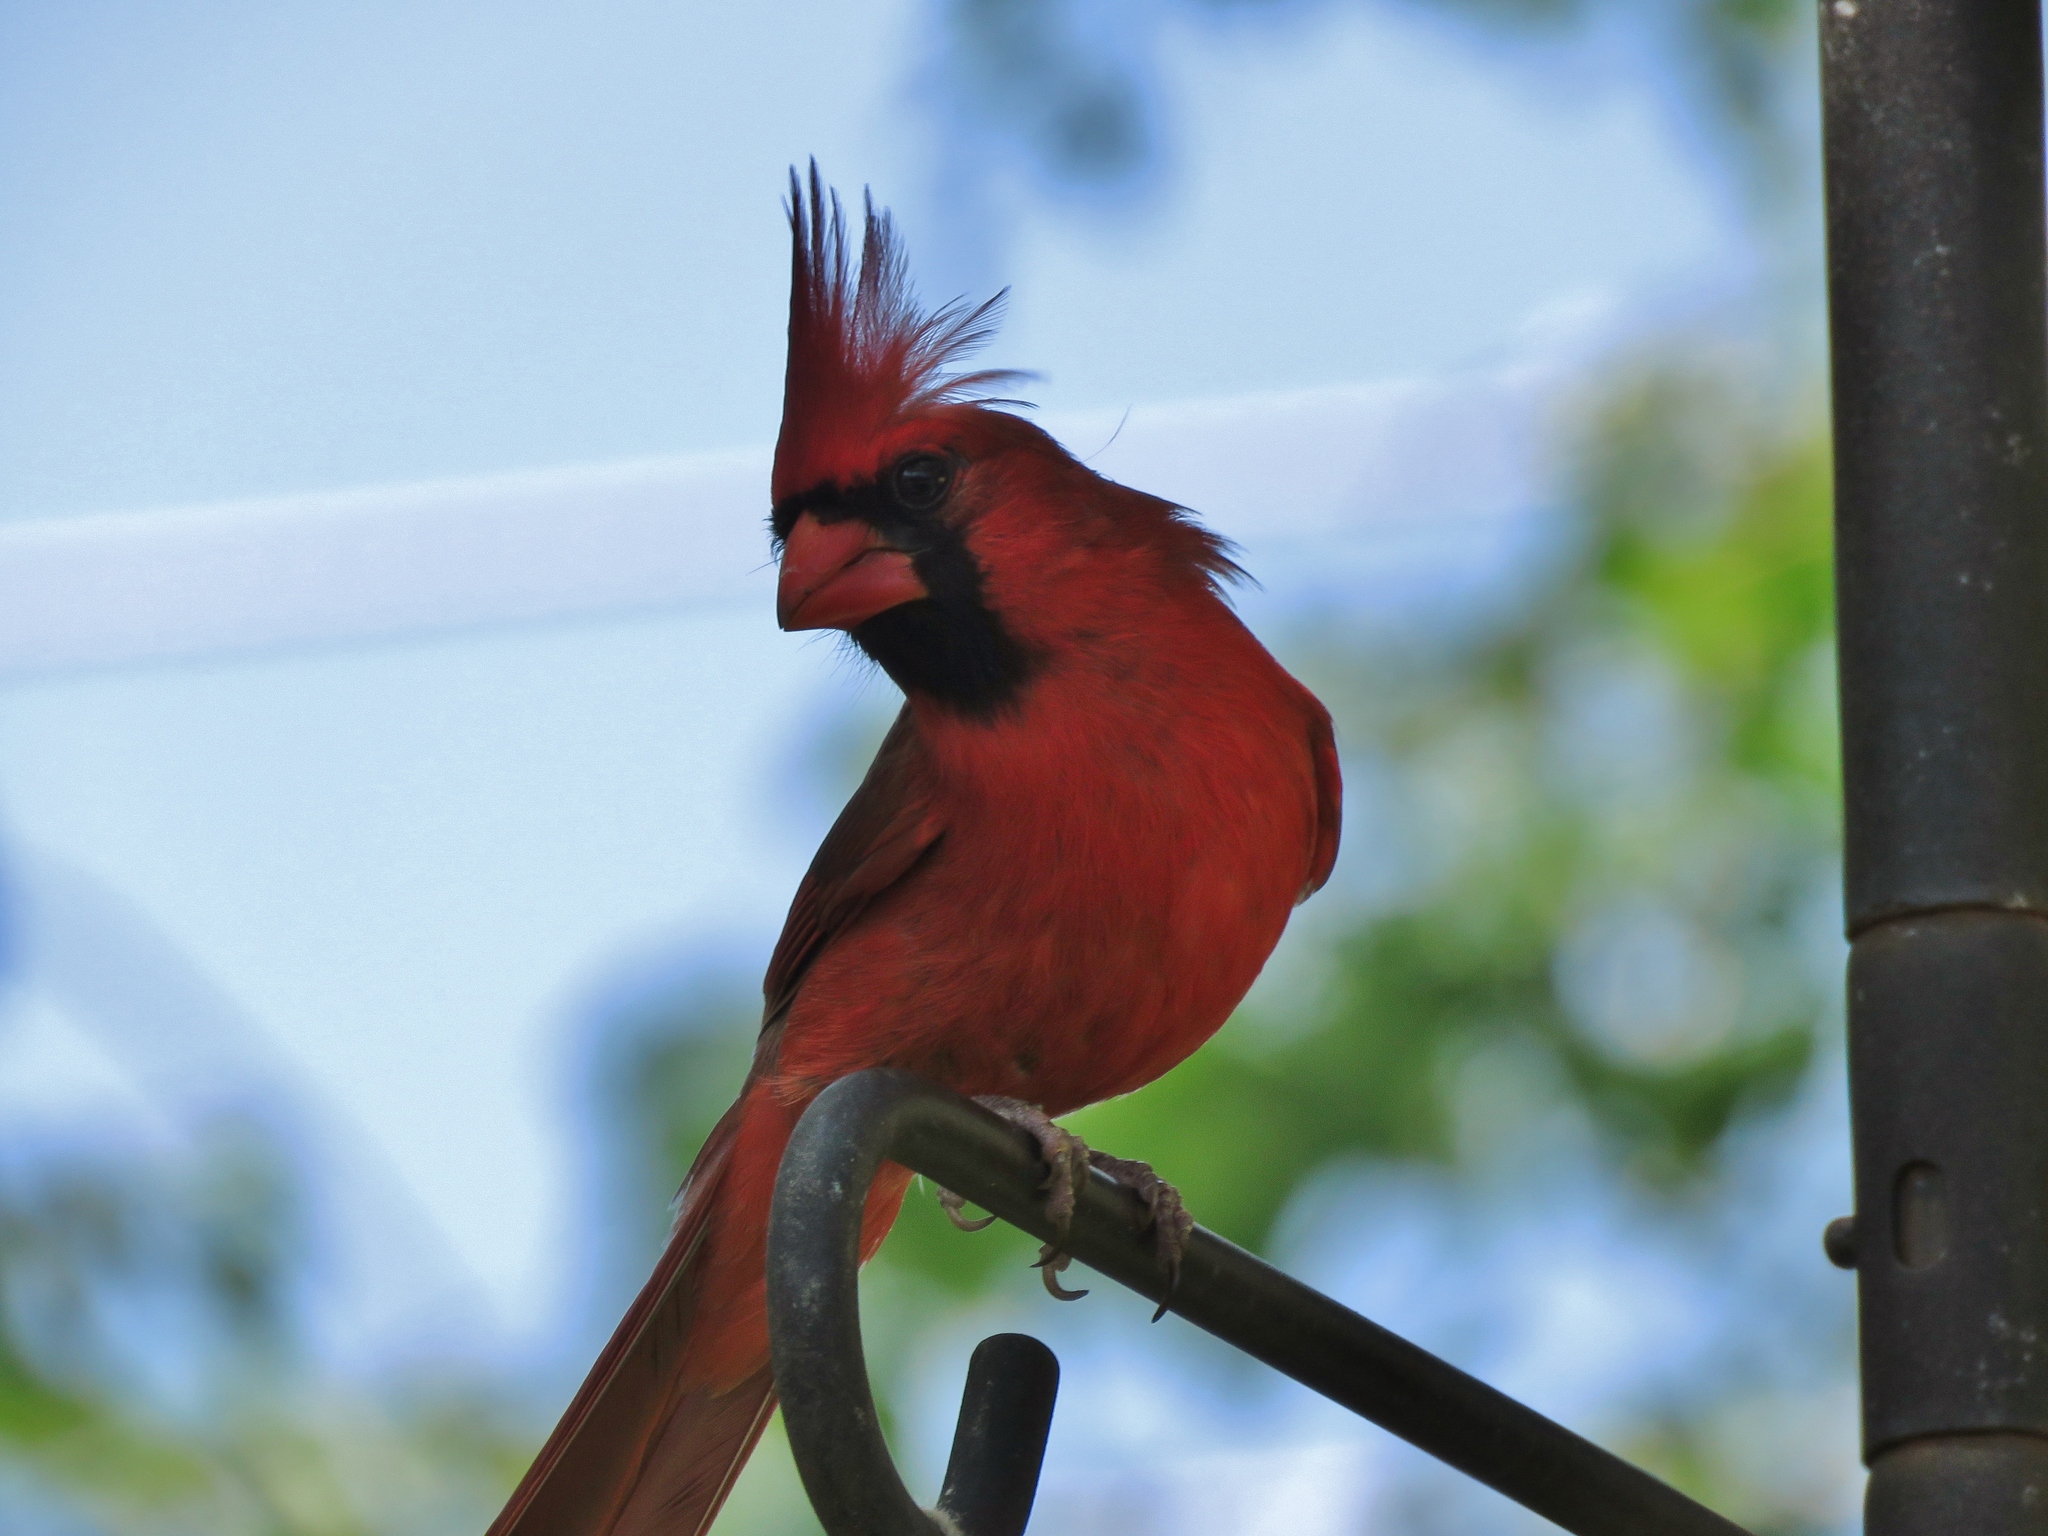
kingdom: Animalia
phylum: Chordata
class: Aves
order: Passeriformes
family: Cardinalidae
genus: Cardinalis
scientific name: Cardinalis cardinalis
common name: Northern cardinal
